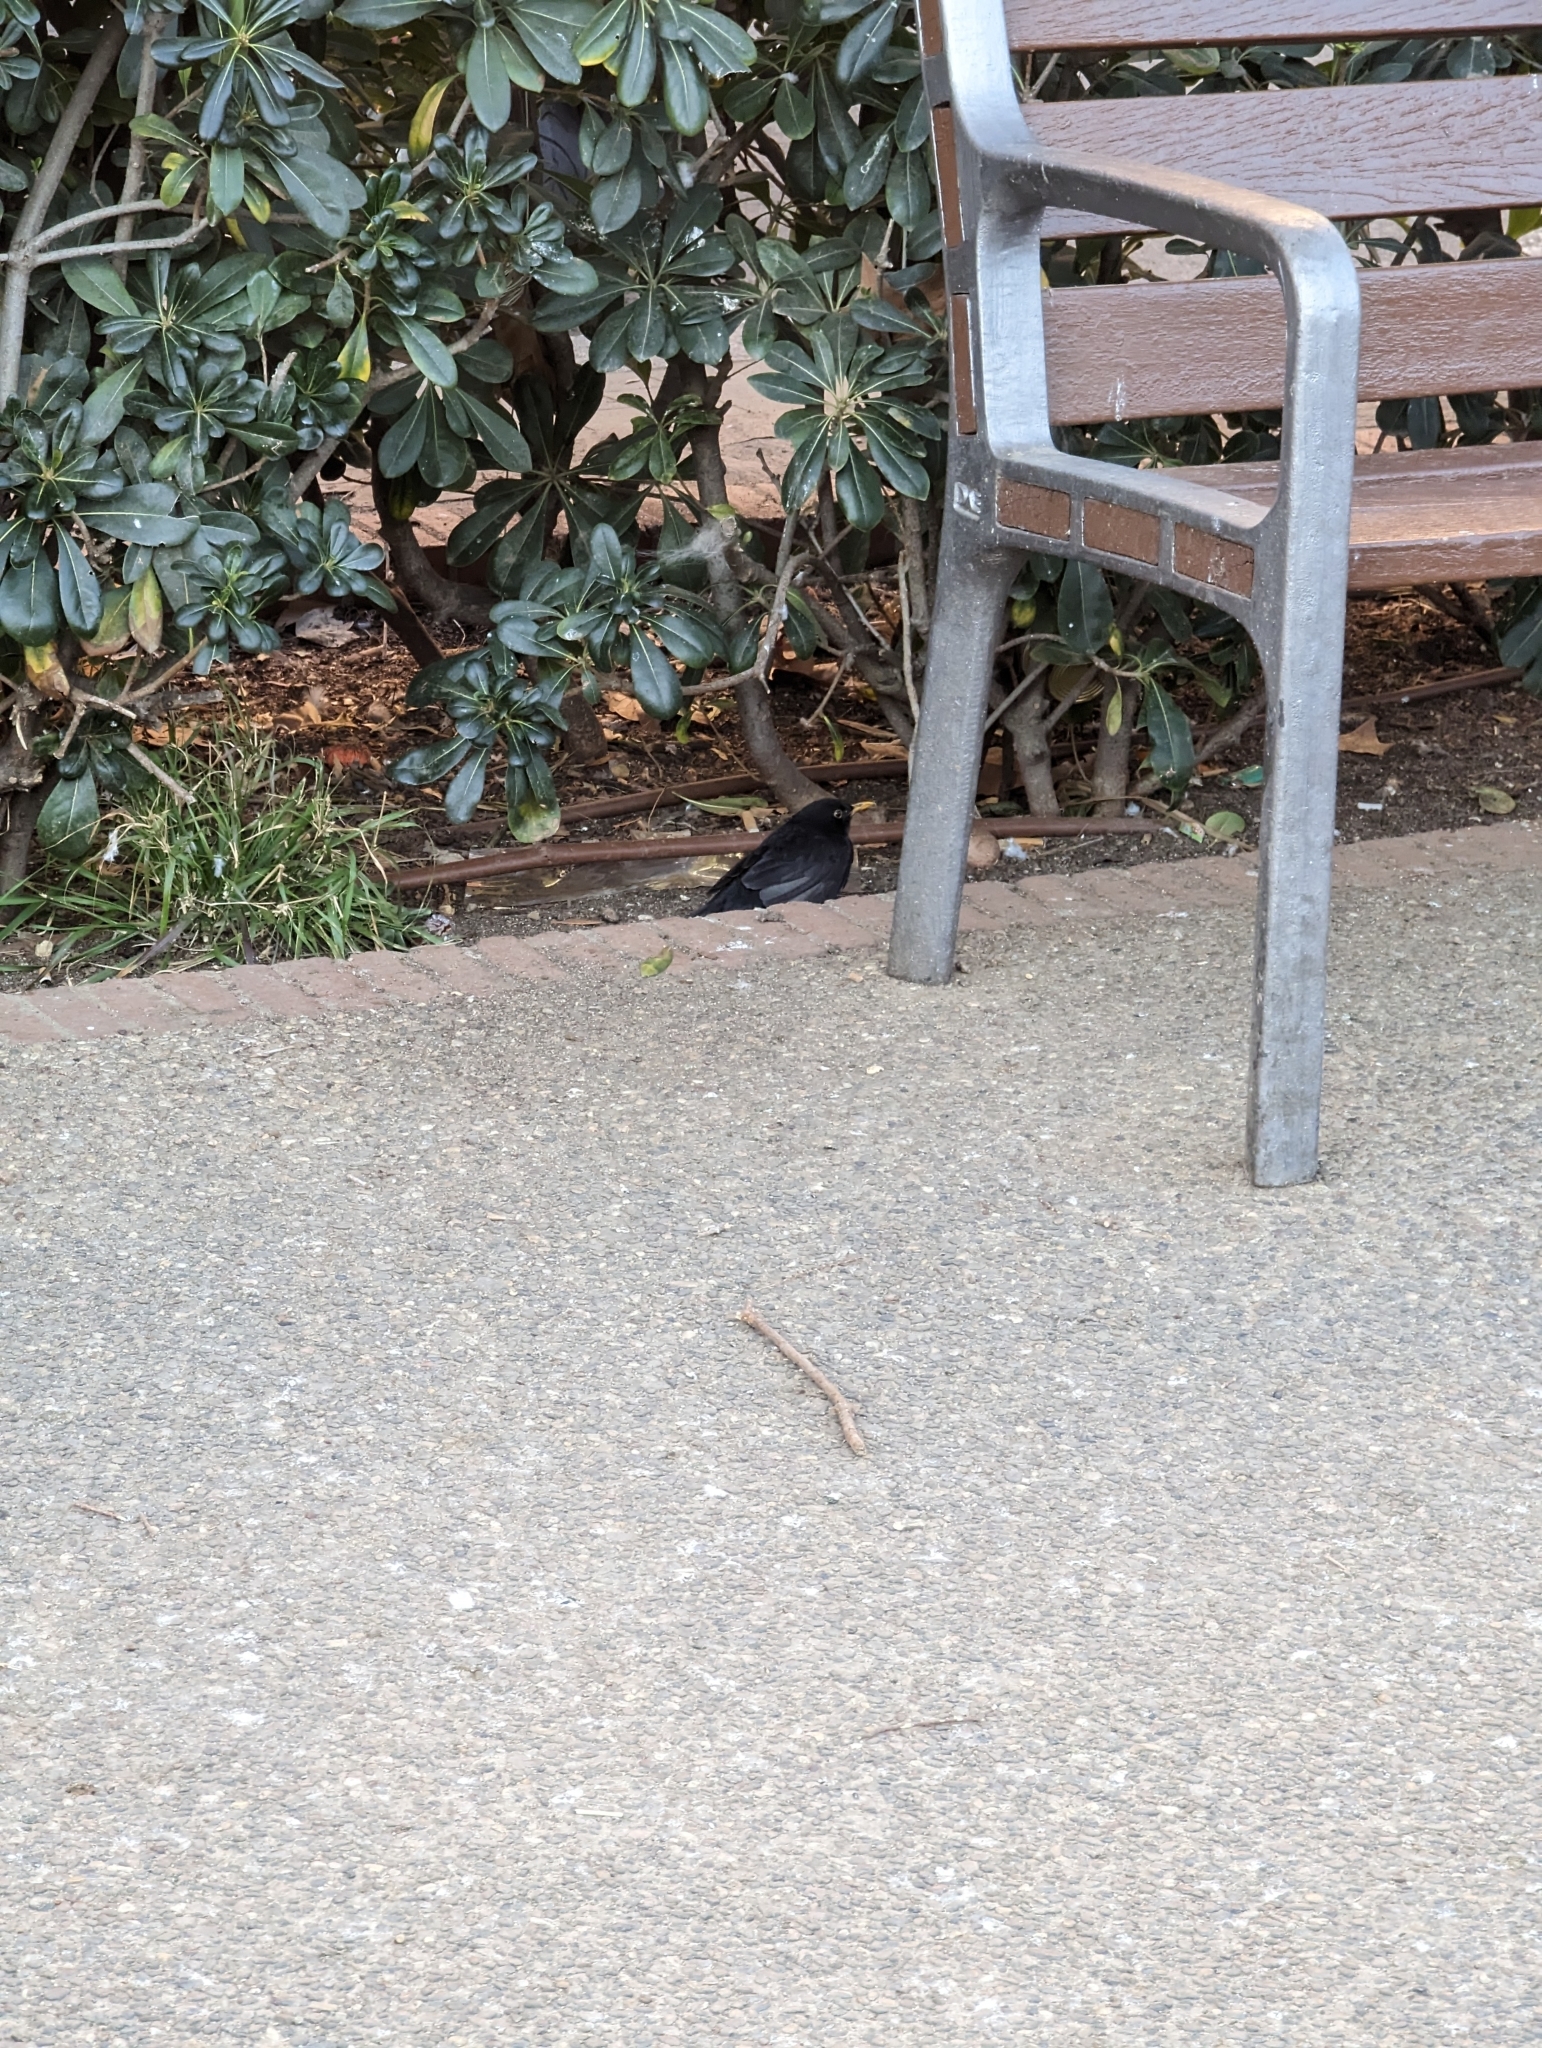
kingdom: Animalia
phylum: Chordata
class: Aves
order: Passeriformes
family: Turdidae
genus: Turdus
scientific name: Turdus merula
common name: Common blackbird
